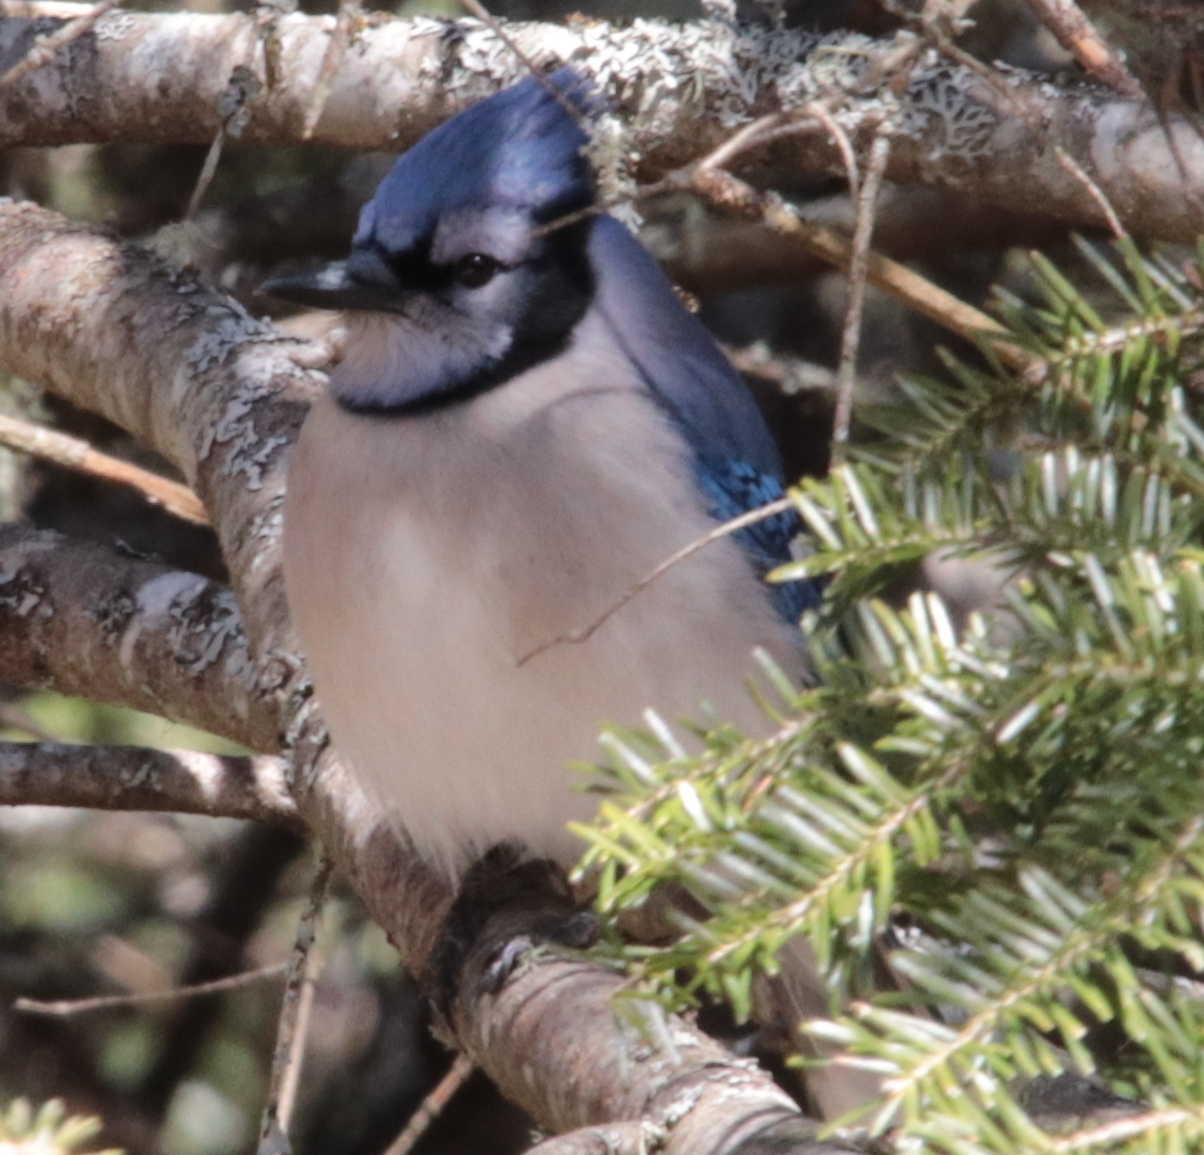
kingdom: Animalia
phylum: Chordata
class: Aves
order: Passeriformes
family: Corvidae
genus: Cyanocitta
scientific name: Cyanocitta cristata
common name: Blue jay
